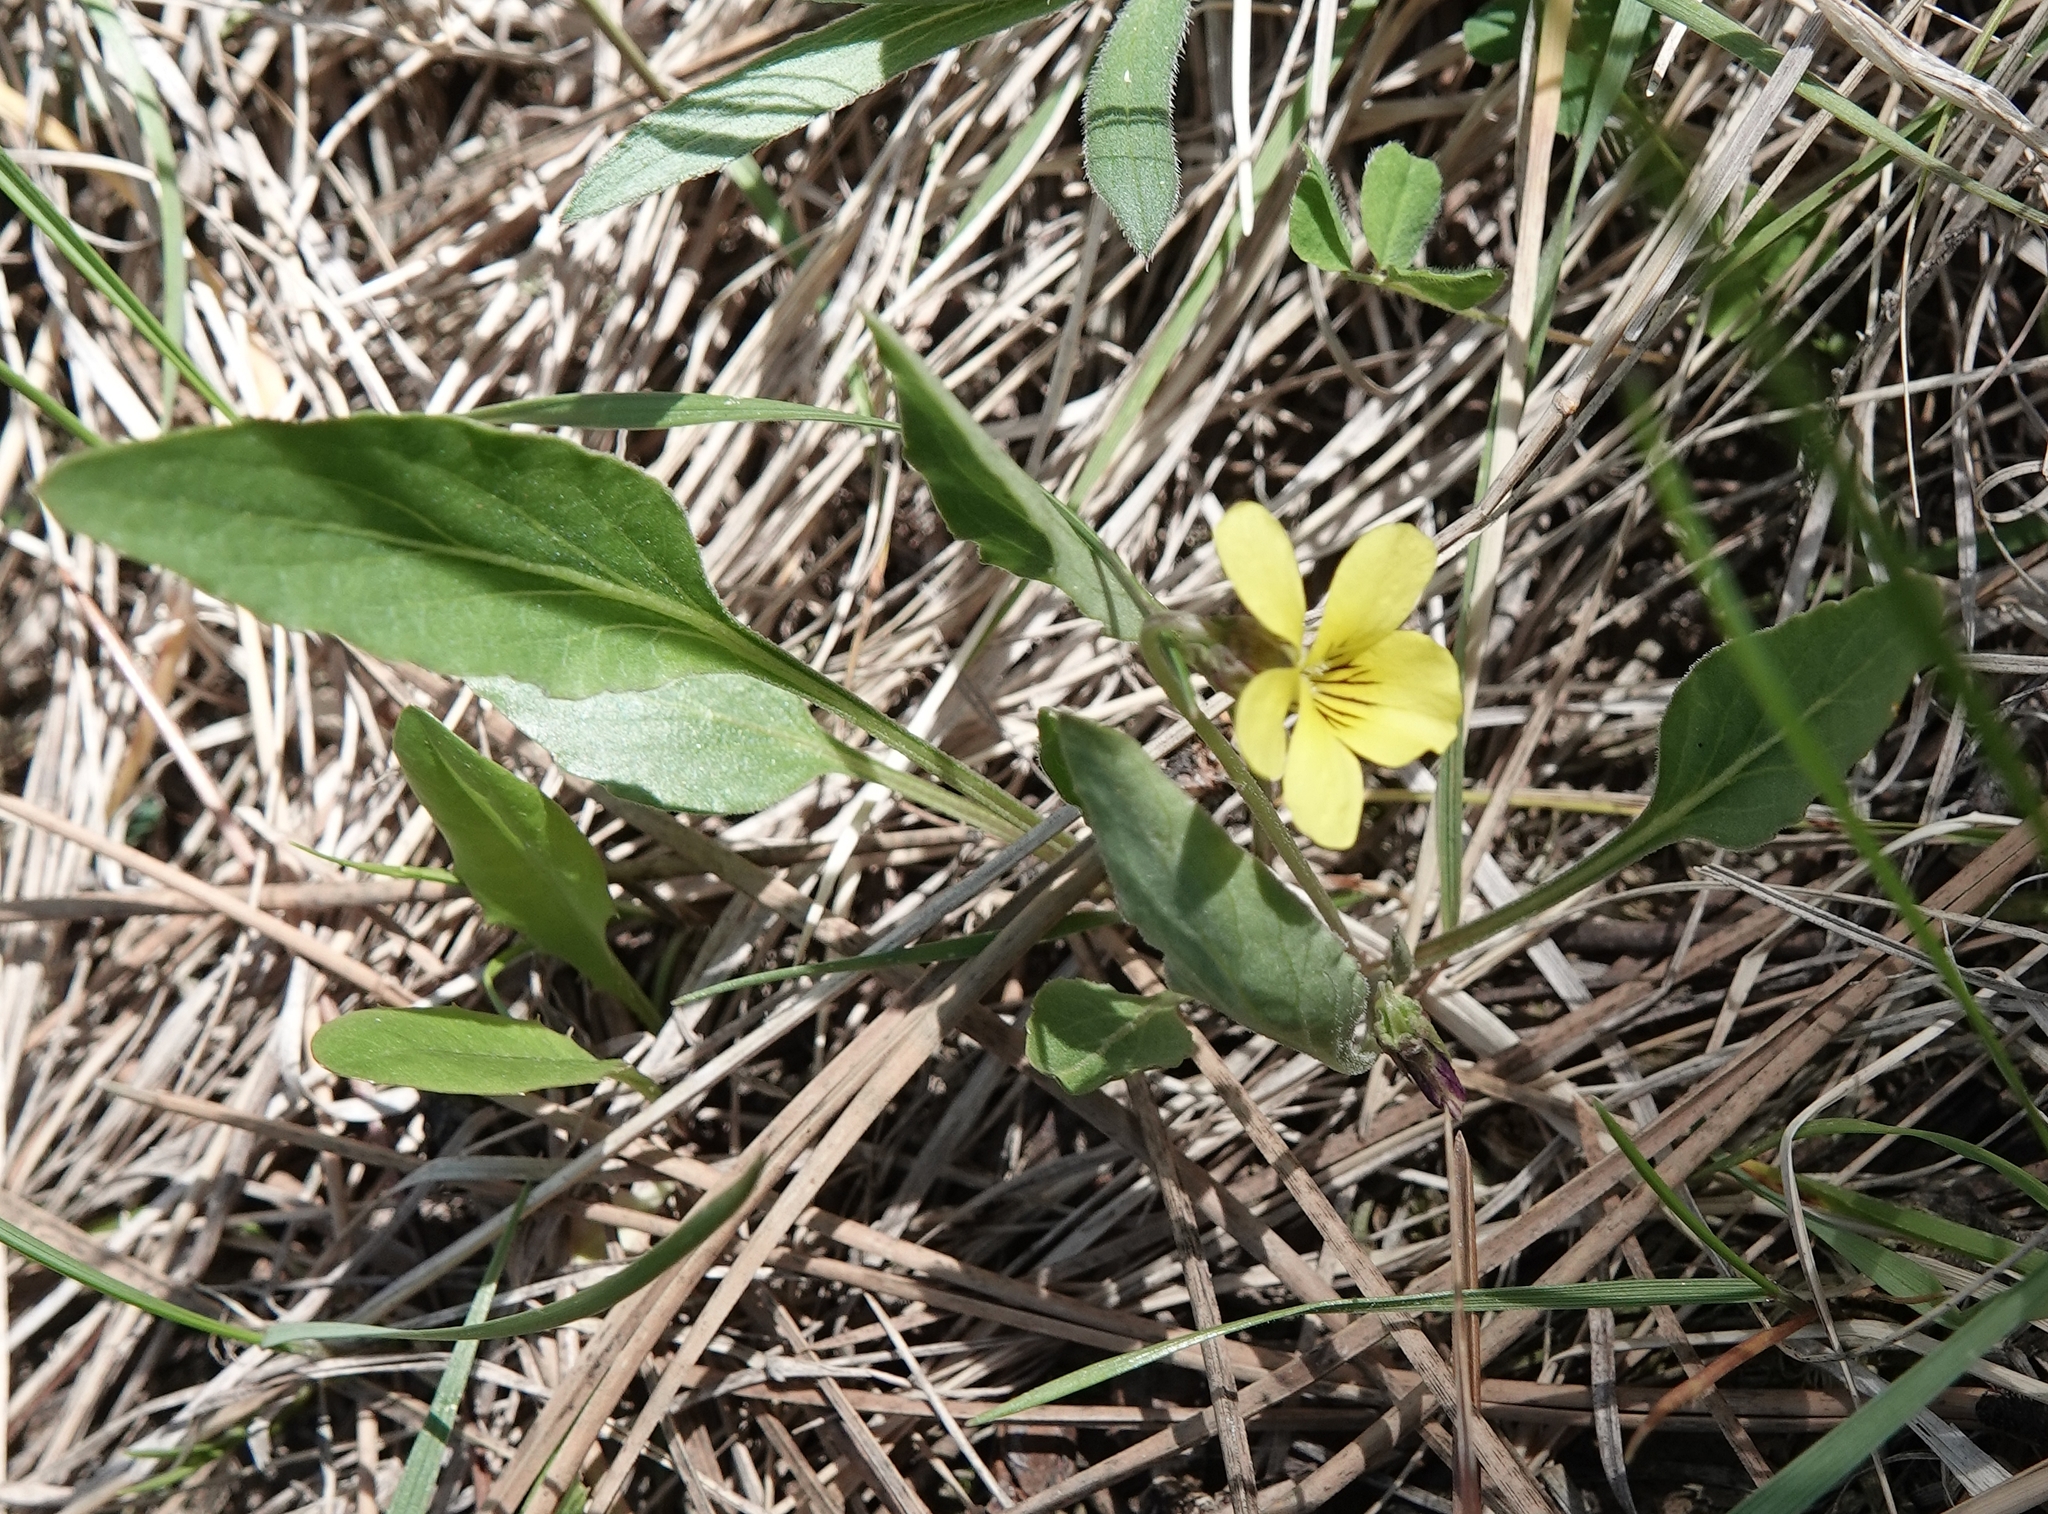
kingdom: Plantae
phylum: Tracheophyta
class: Magnoliopsida
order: Malpighiales
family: Violaceae
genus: Viola
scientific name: Viola nuttallii
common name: Yellow prairie violet
